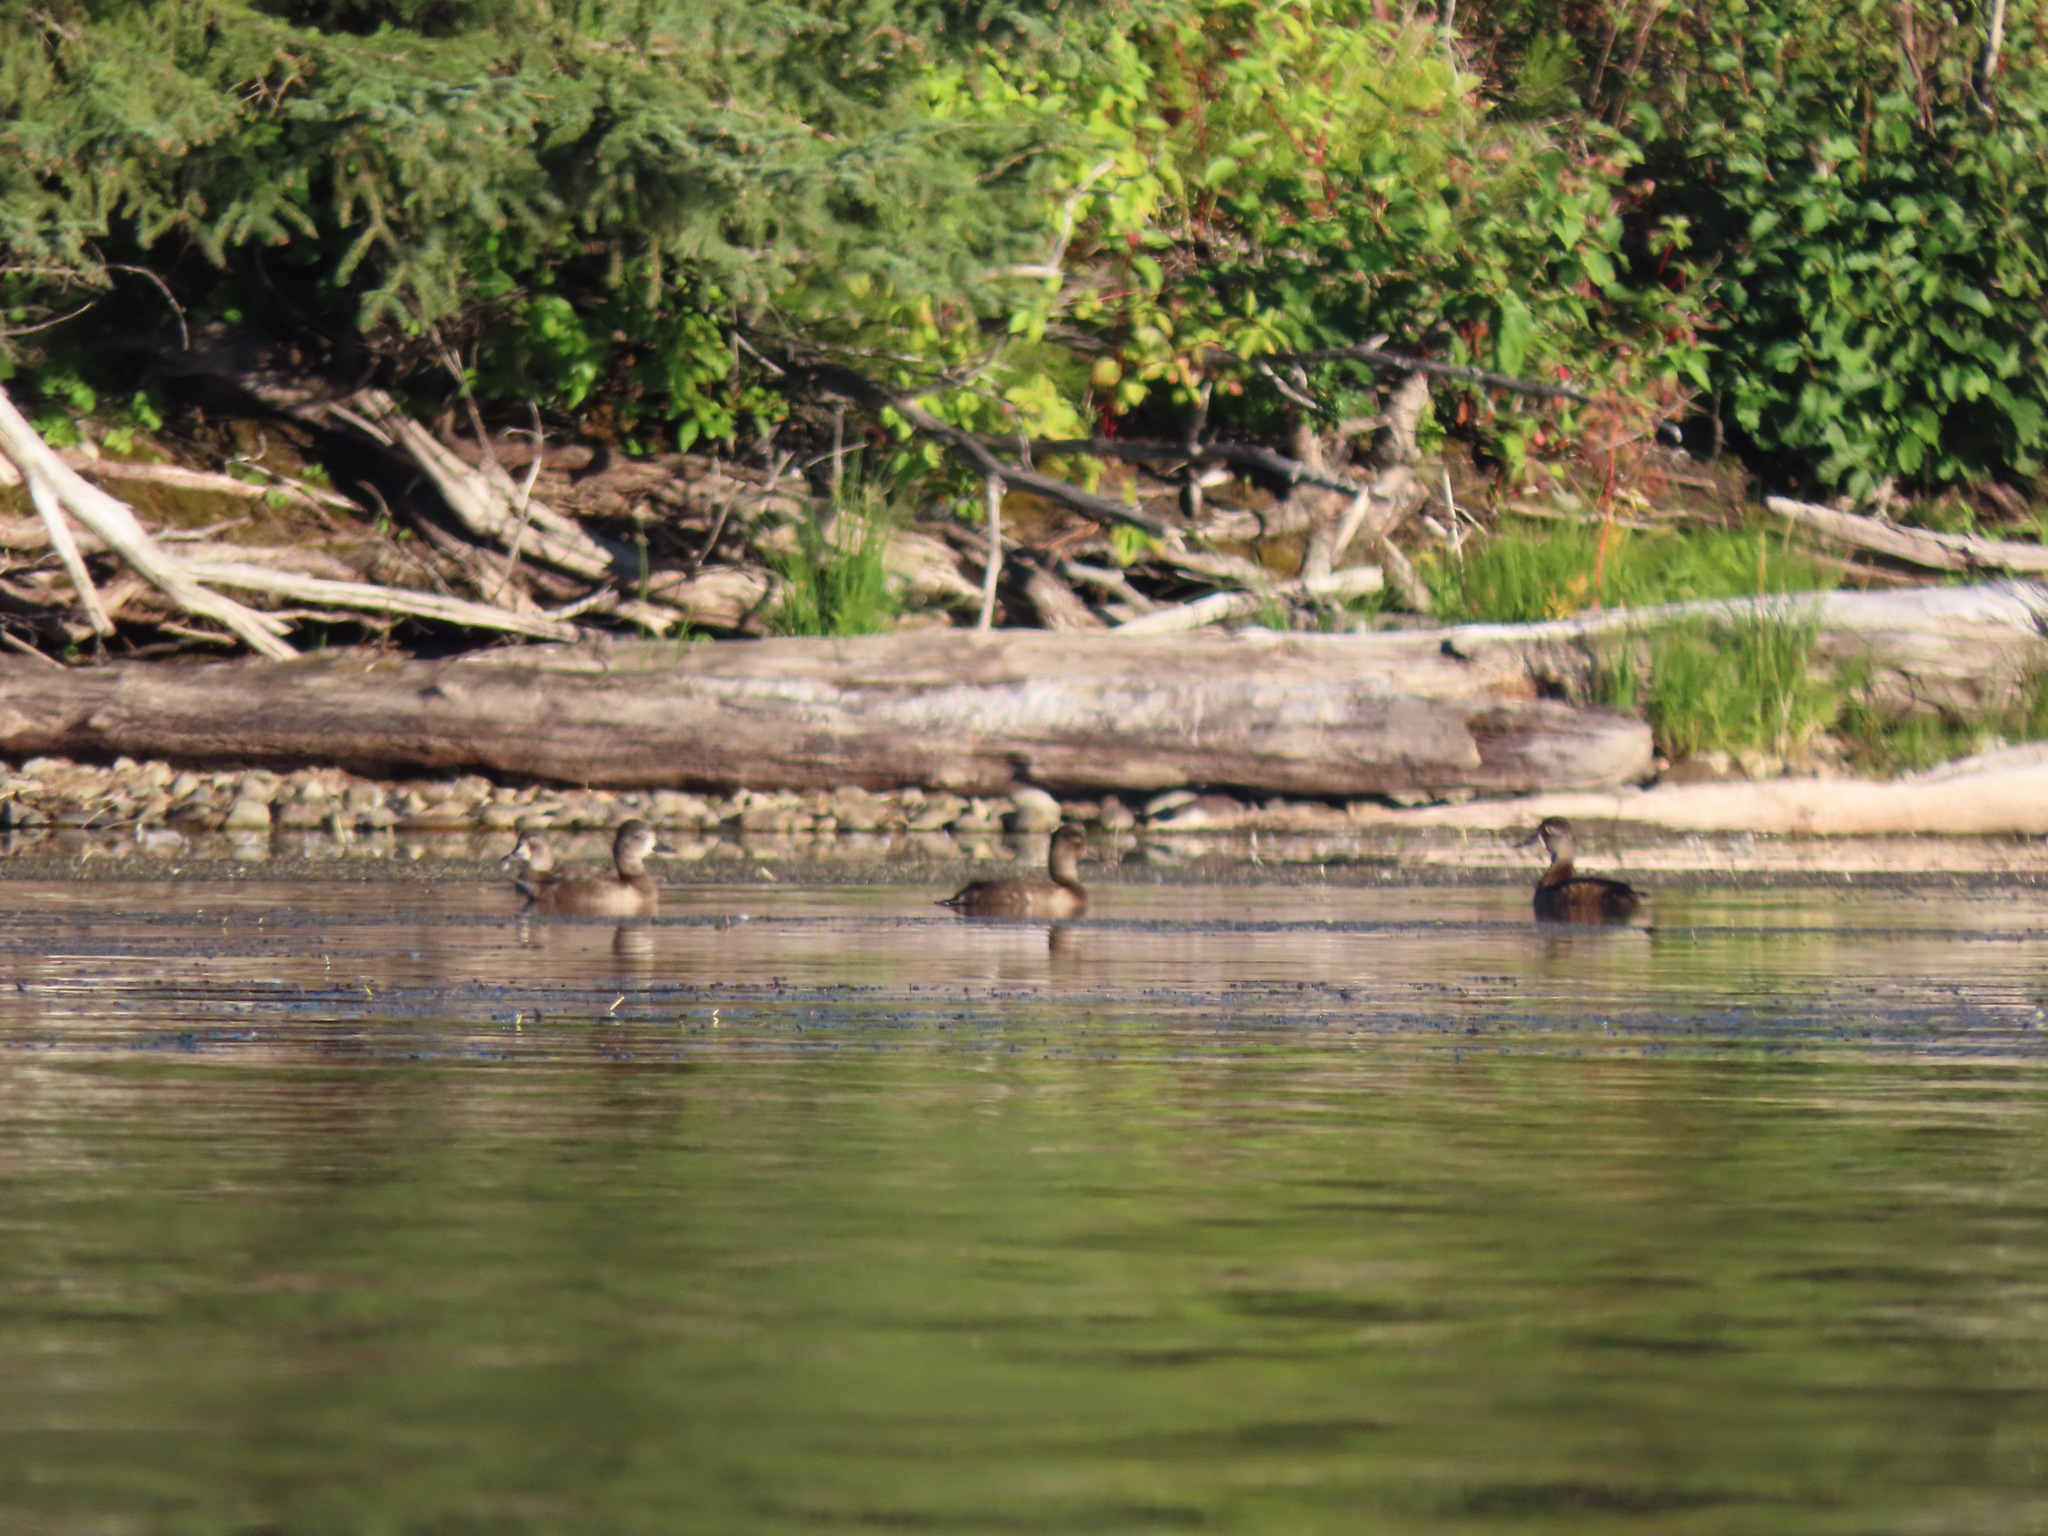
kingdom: Animalia
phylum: Chordata
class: Aves
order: Anseriformes
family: Anatidae
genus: Aythya
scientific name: Aythya collaris
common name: Ring-necked duck
